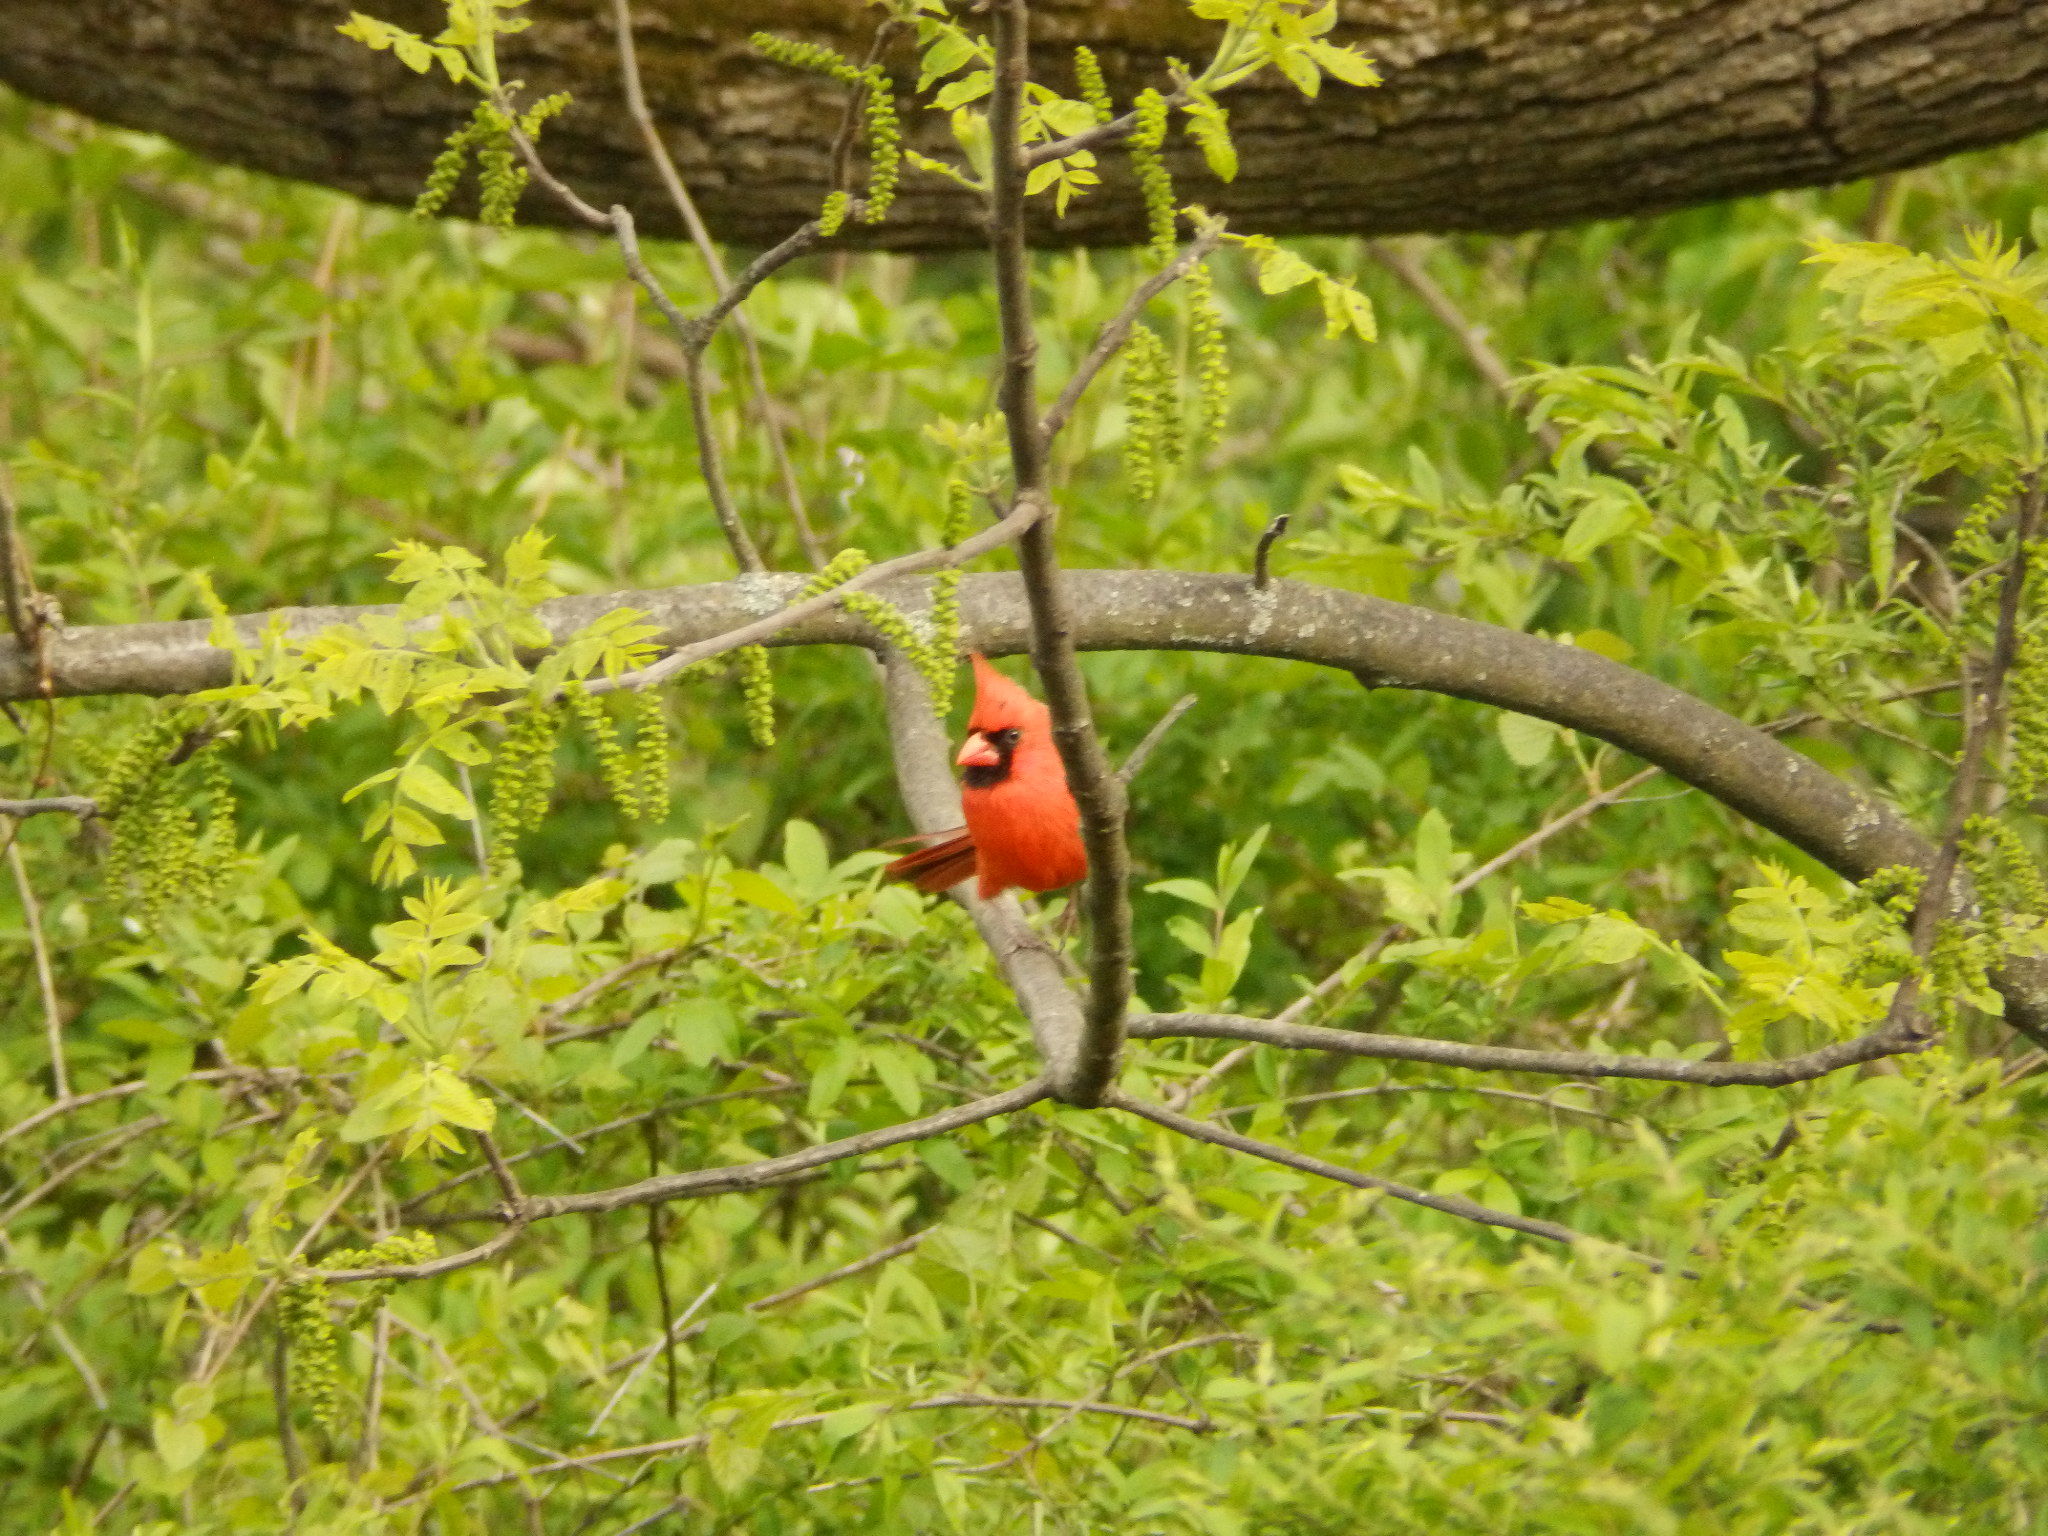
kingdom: Animalia
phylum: Chordata
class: Aves
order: Passeriformes
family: Cardinalidae
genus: Cardinalis
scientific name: Cardinalis cardinalis
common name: Northern cardinal
